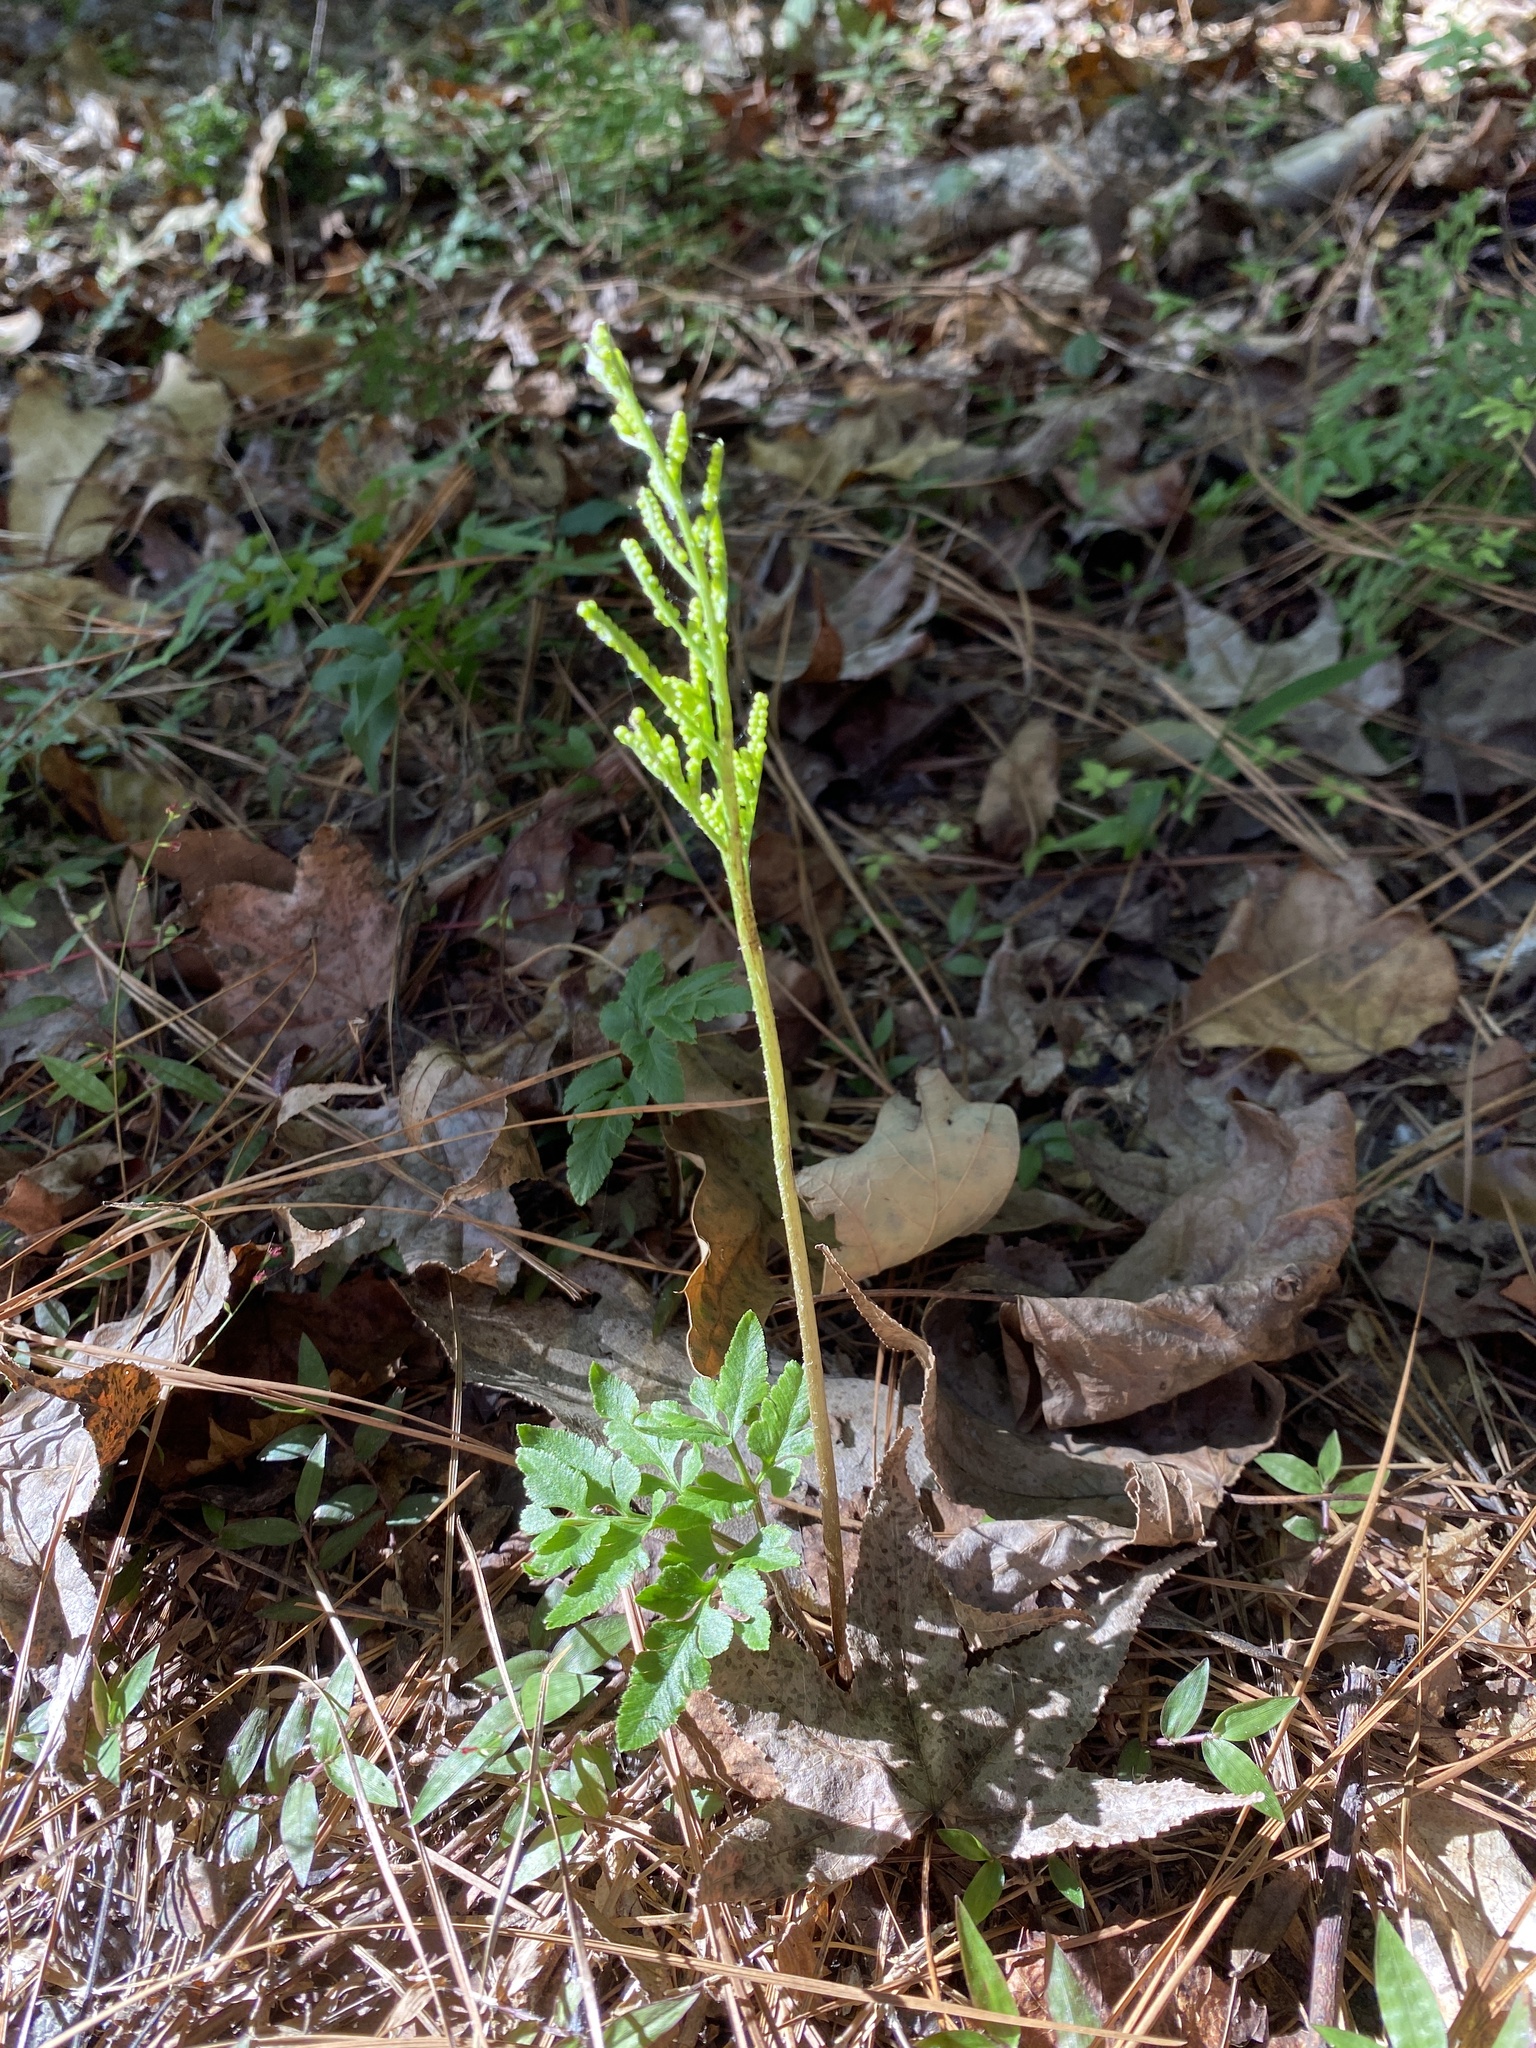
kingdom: Plantae
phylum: Tracheophyta
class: Polypodiopsida
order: Ophioglossales
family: Ophioglossaceae
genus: Sceptridium
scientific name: Sceptridium biternatum
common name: Sparse-lobed grapefern
